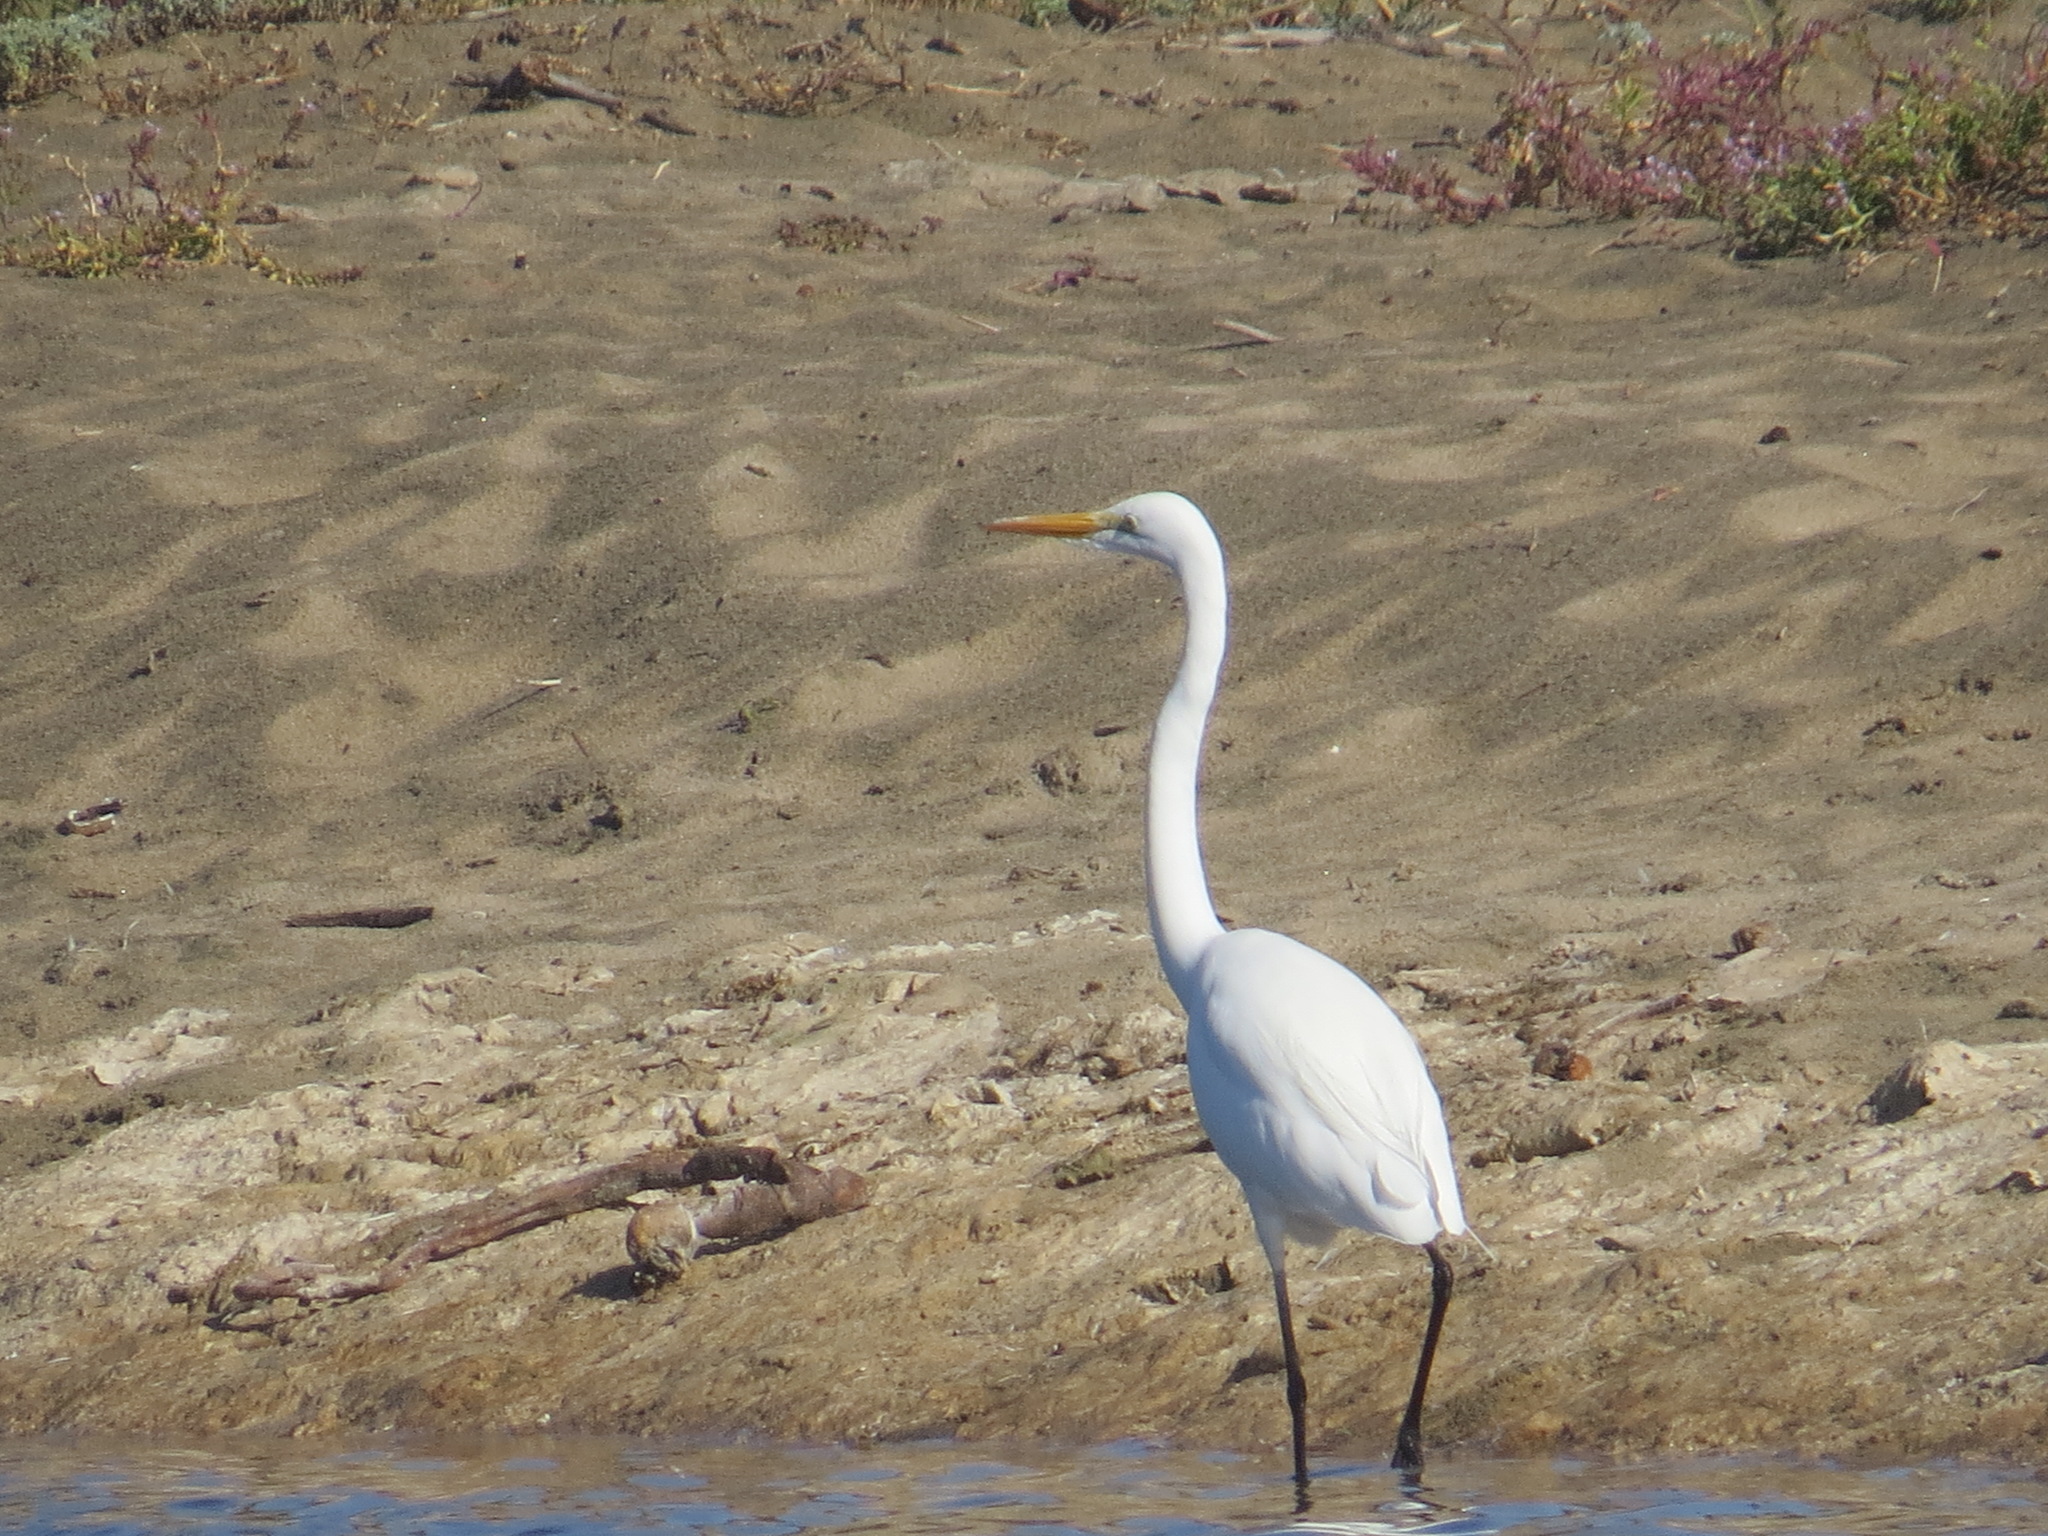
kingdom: Animalia
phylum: Chordata
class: Aves
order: Pelecaniformes
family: Ardeidae
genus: Ardea
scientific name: Ardea alba
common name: Great egret
